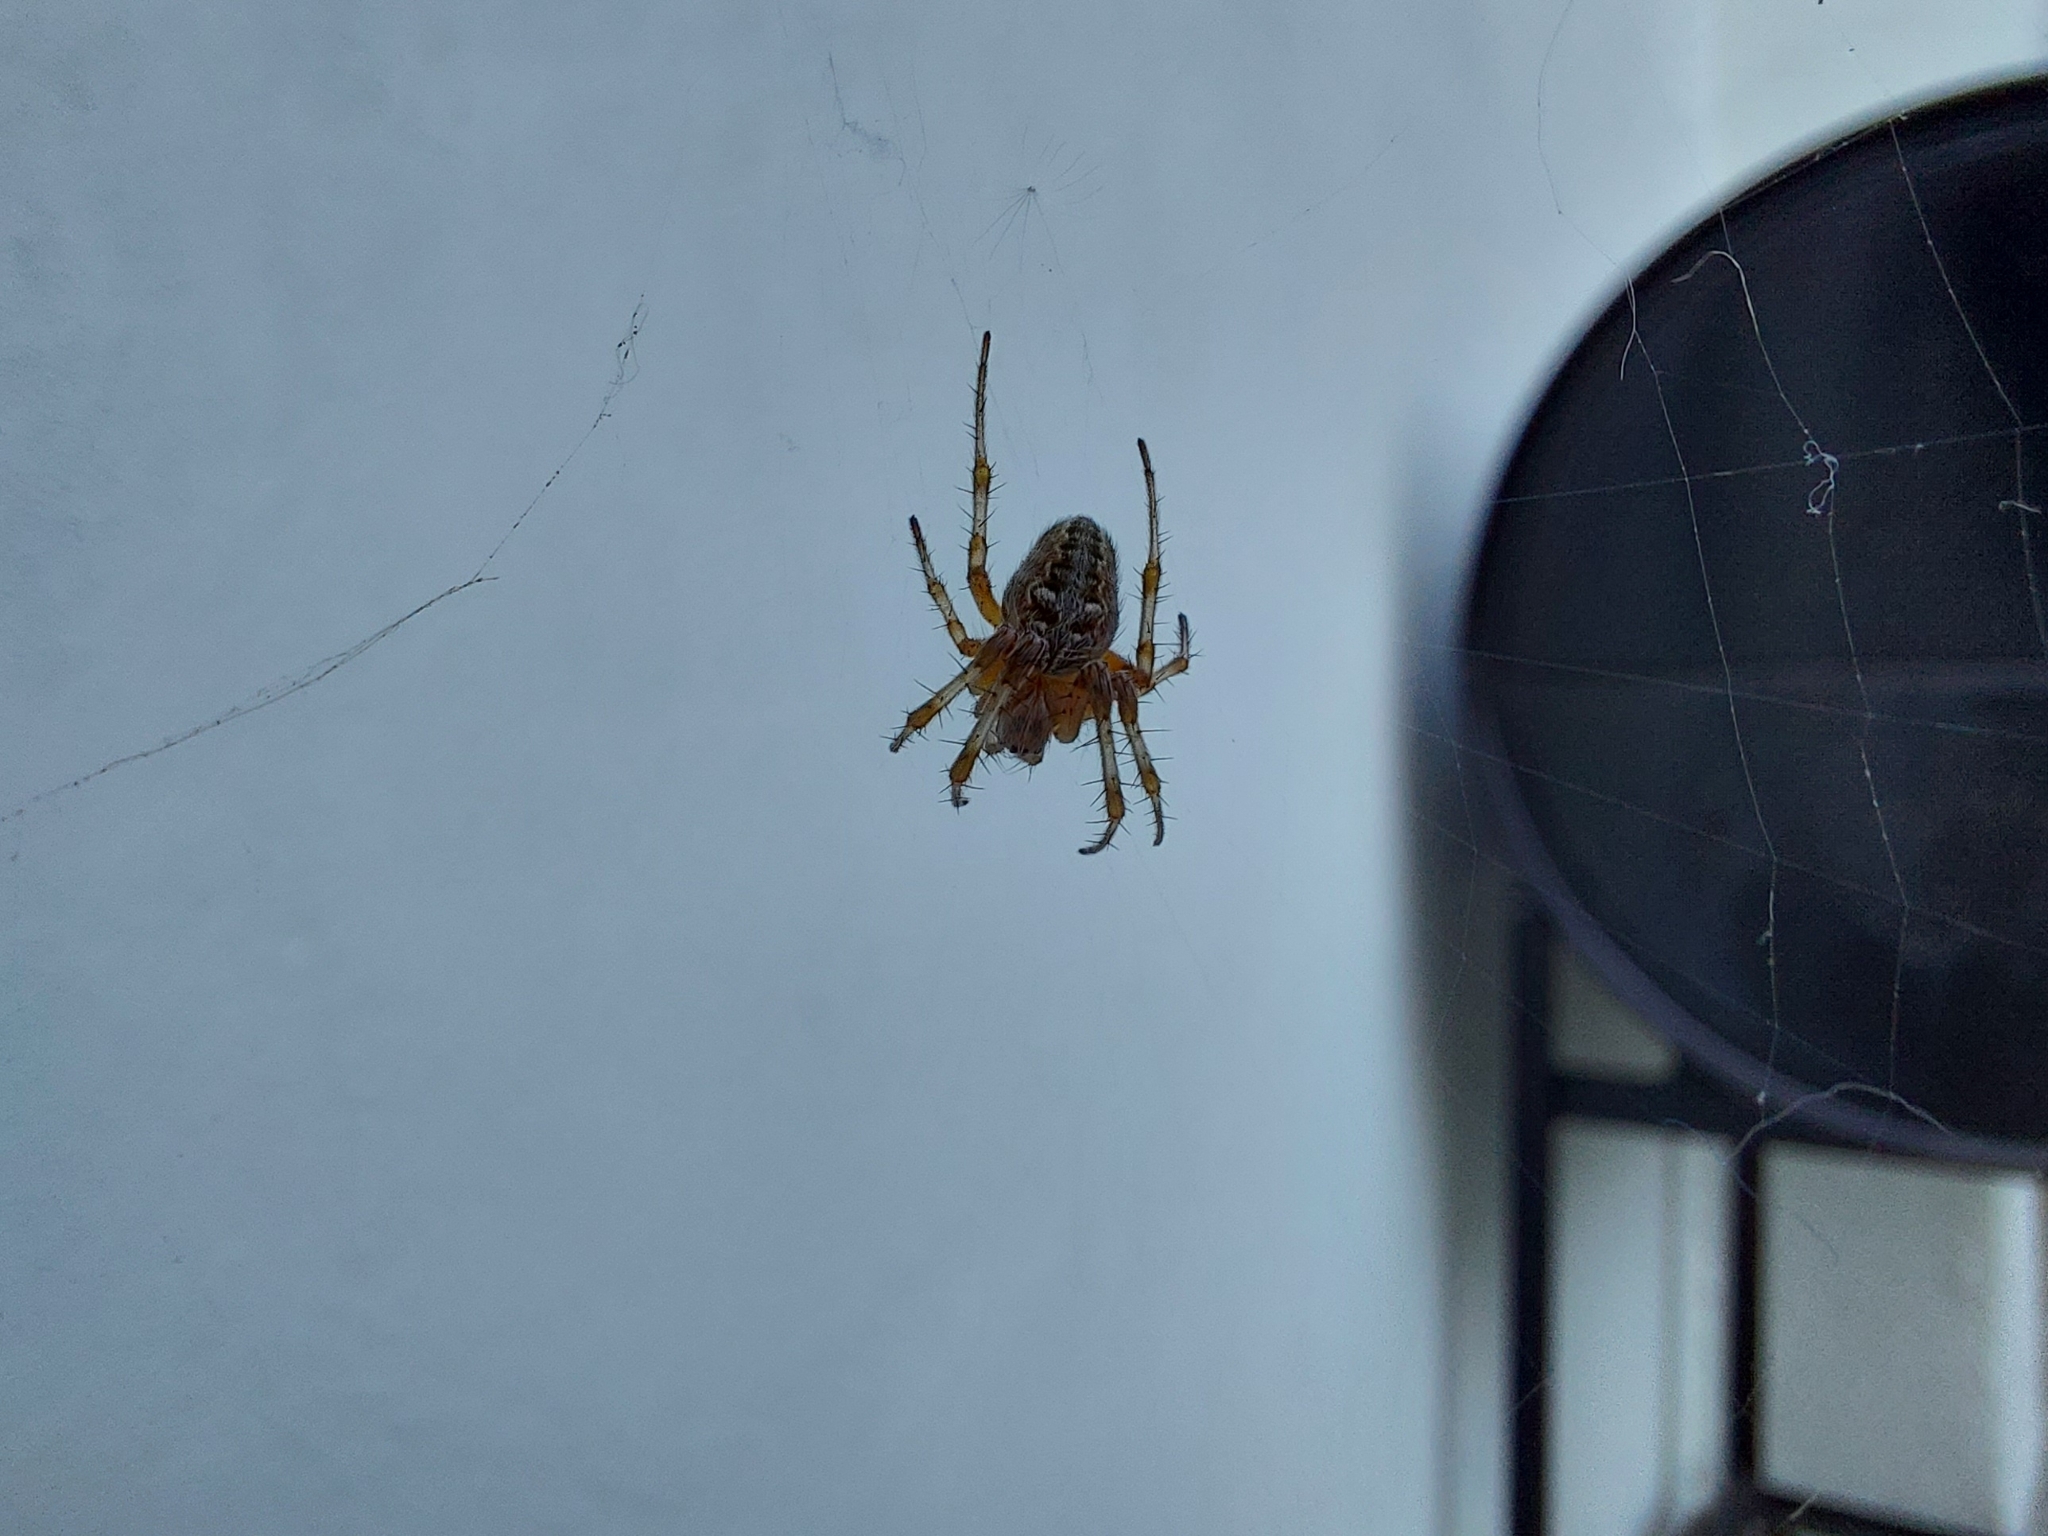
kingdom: Animalia
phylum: Arthropoda
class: Arachnida
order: Araneae
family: Araneidae
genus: Metepeira
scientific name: Metepeira
